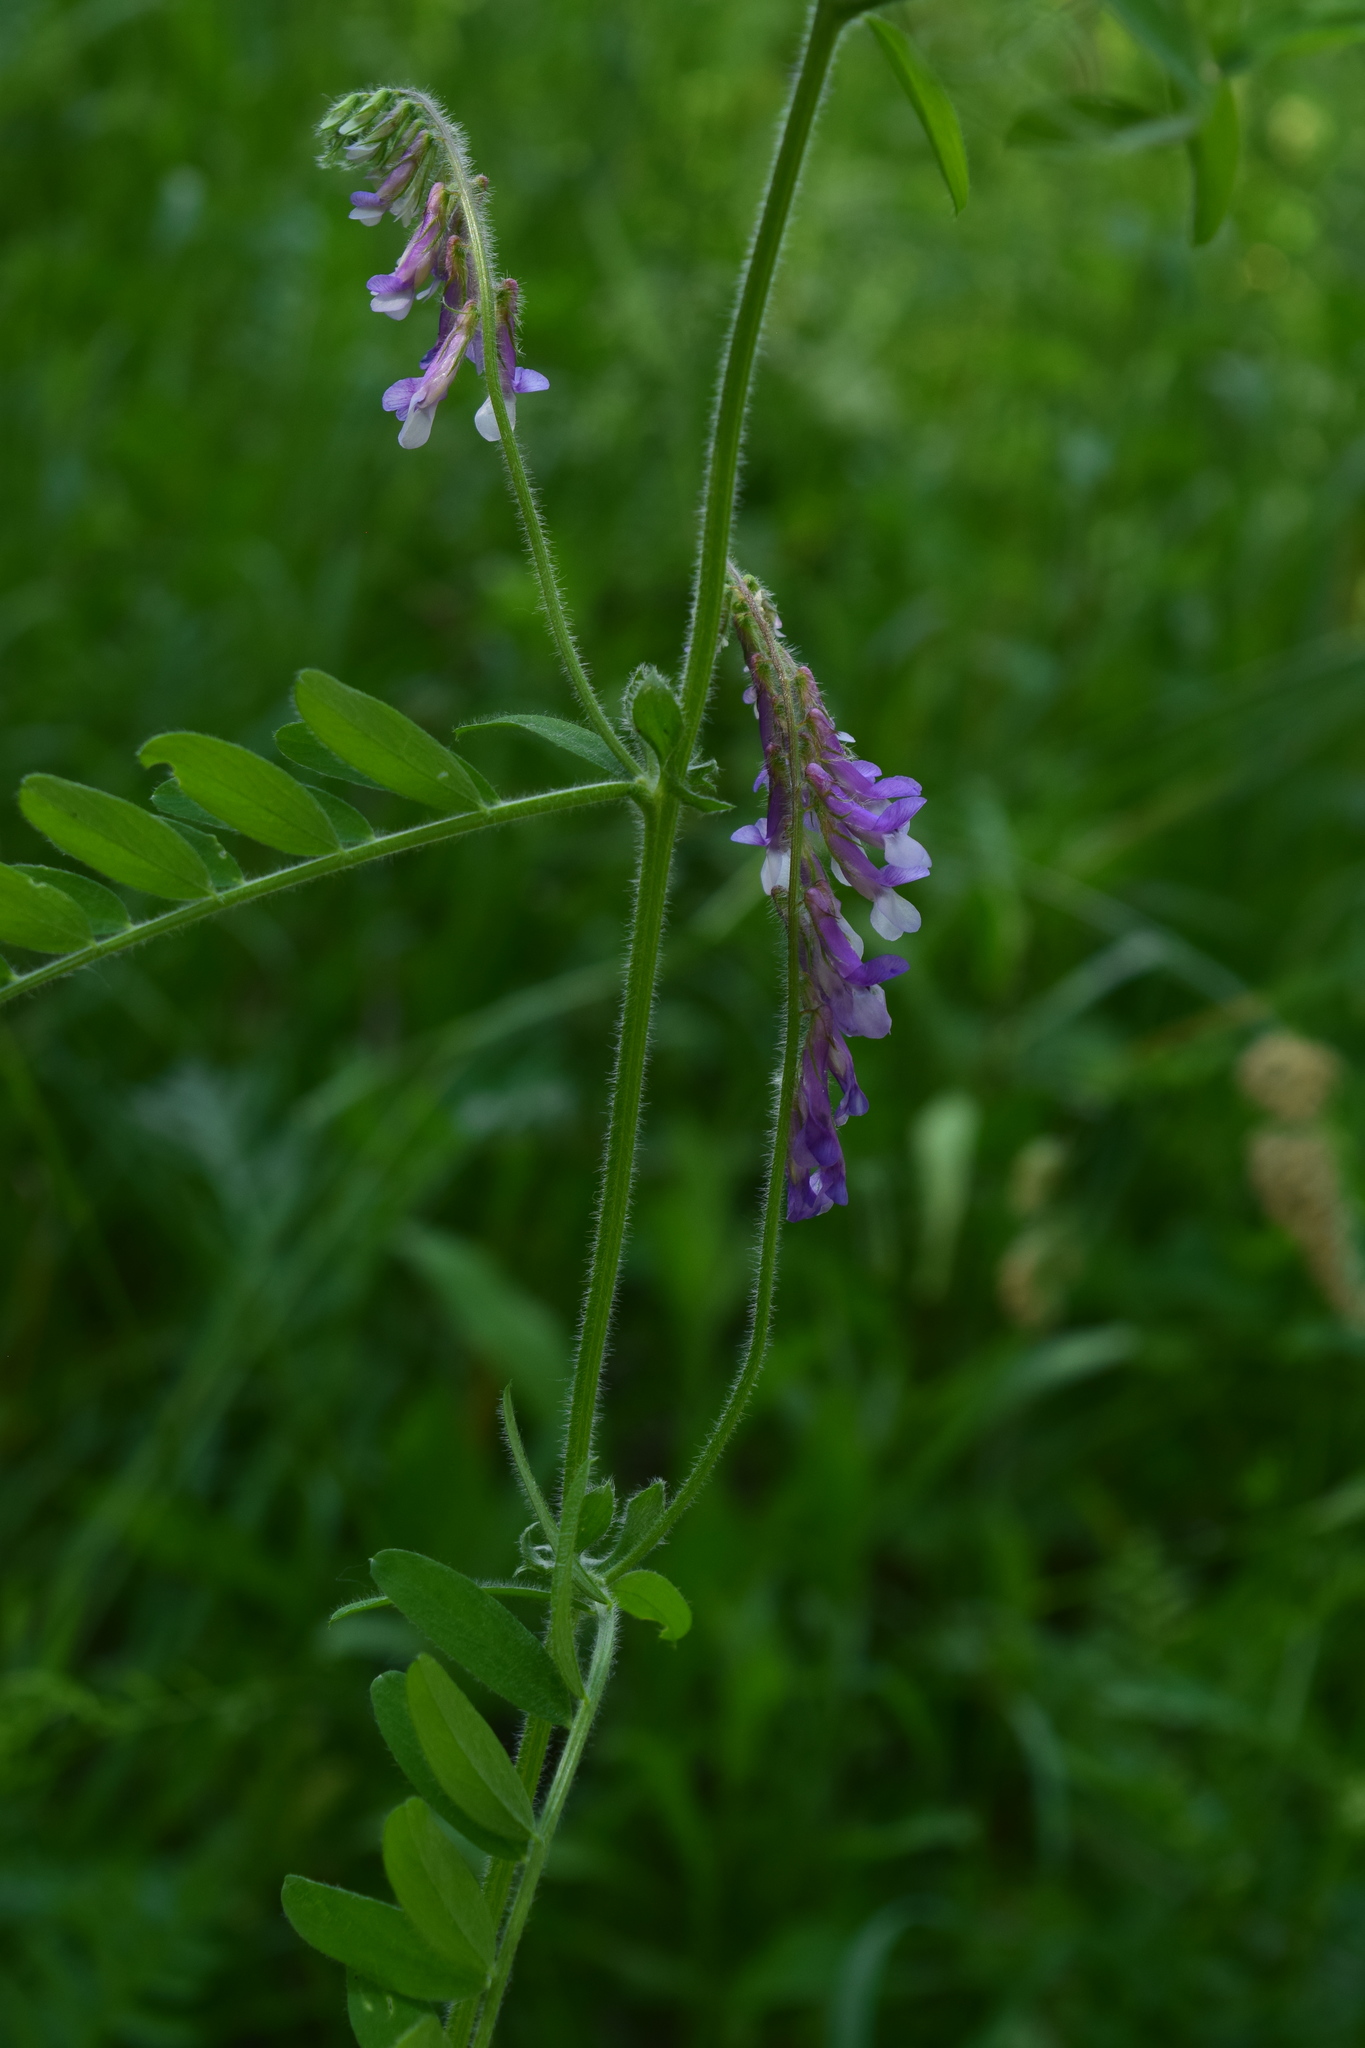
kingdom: Plantae
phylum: Tracheophyta
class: Magnoliopsida
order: Fabales
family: Fabaceae
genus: Vicia
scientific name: Vicia villosa
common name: Fodder vetch
